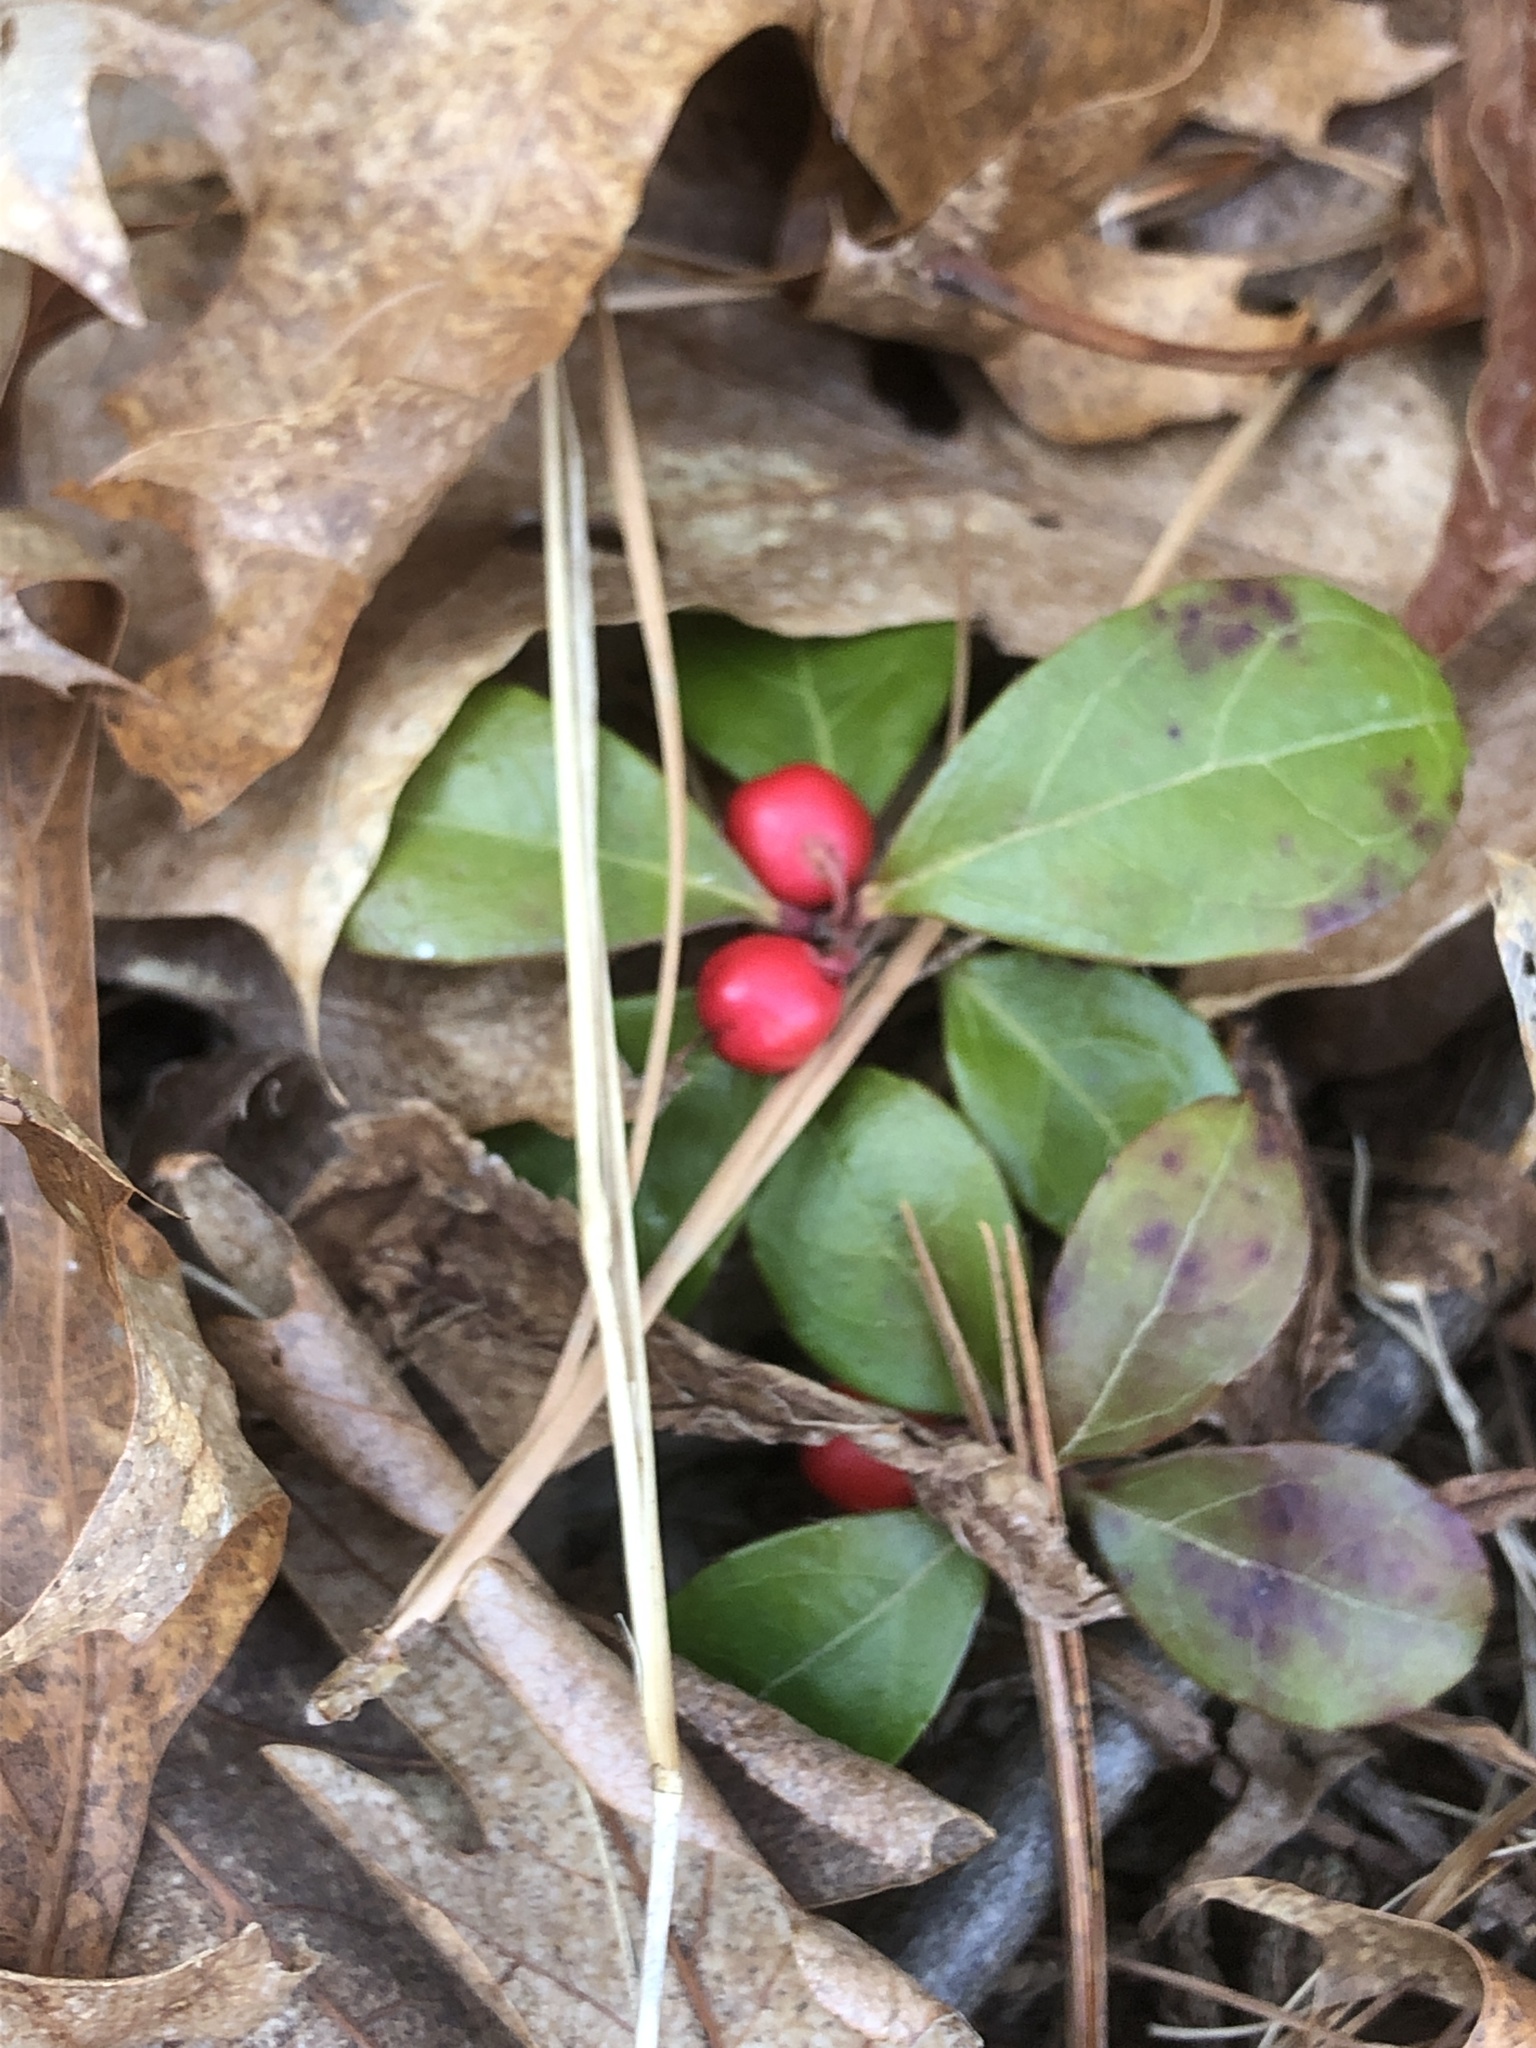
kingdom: Plantae
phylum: Tracheophyta
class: Magnoliopsida
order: Ericales
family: Ericaceae
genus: Gaultheria
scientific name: Gaultheria procumbens
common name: Checkerberry
